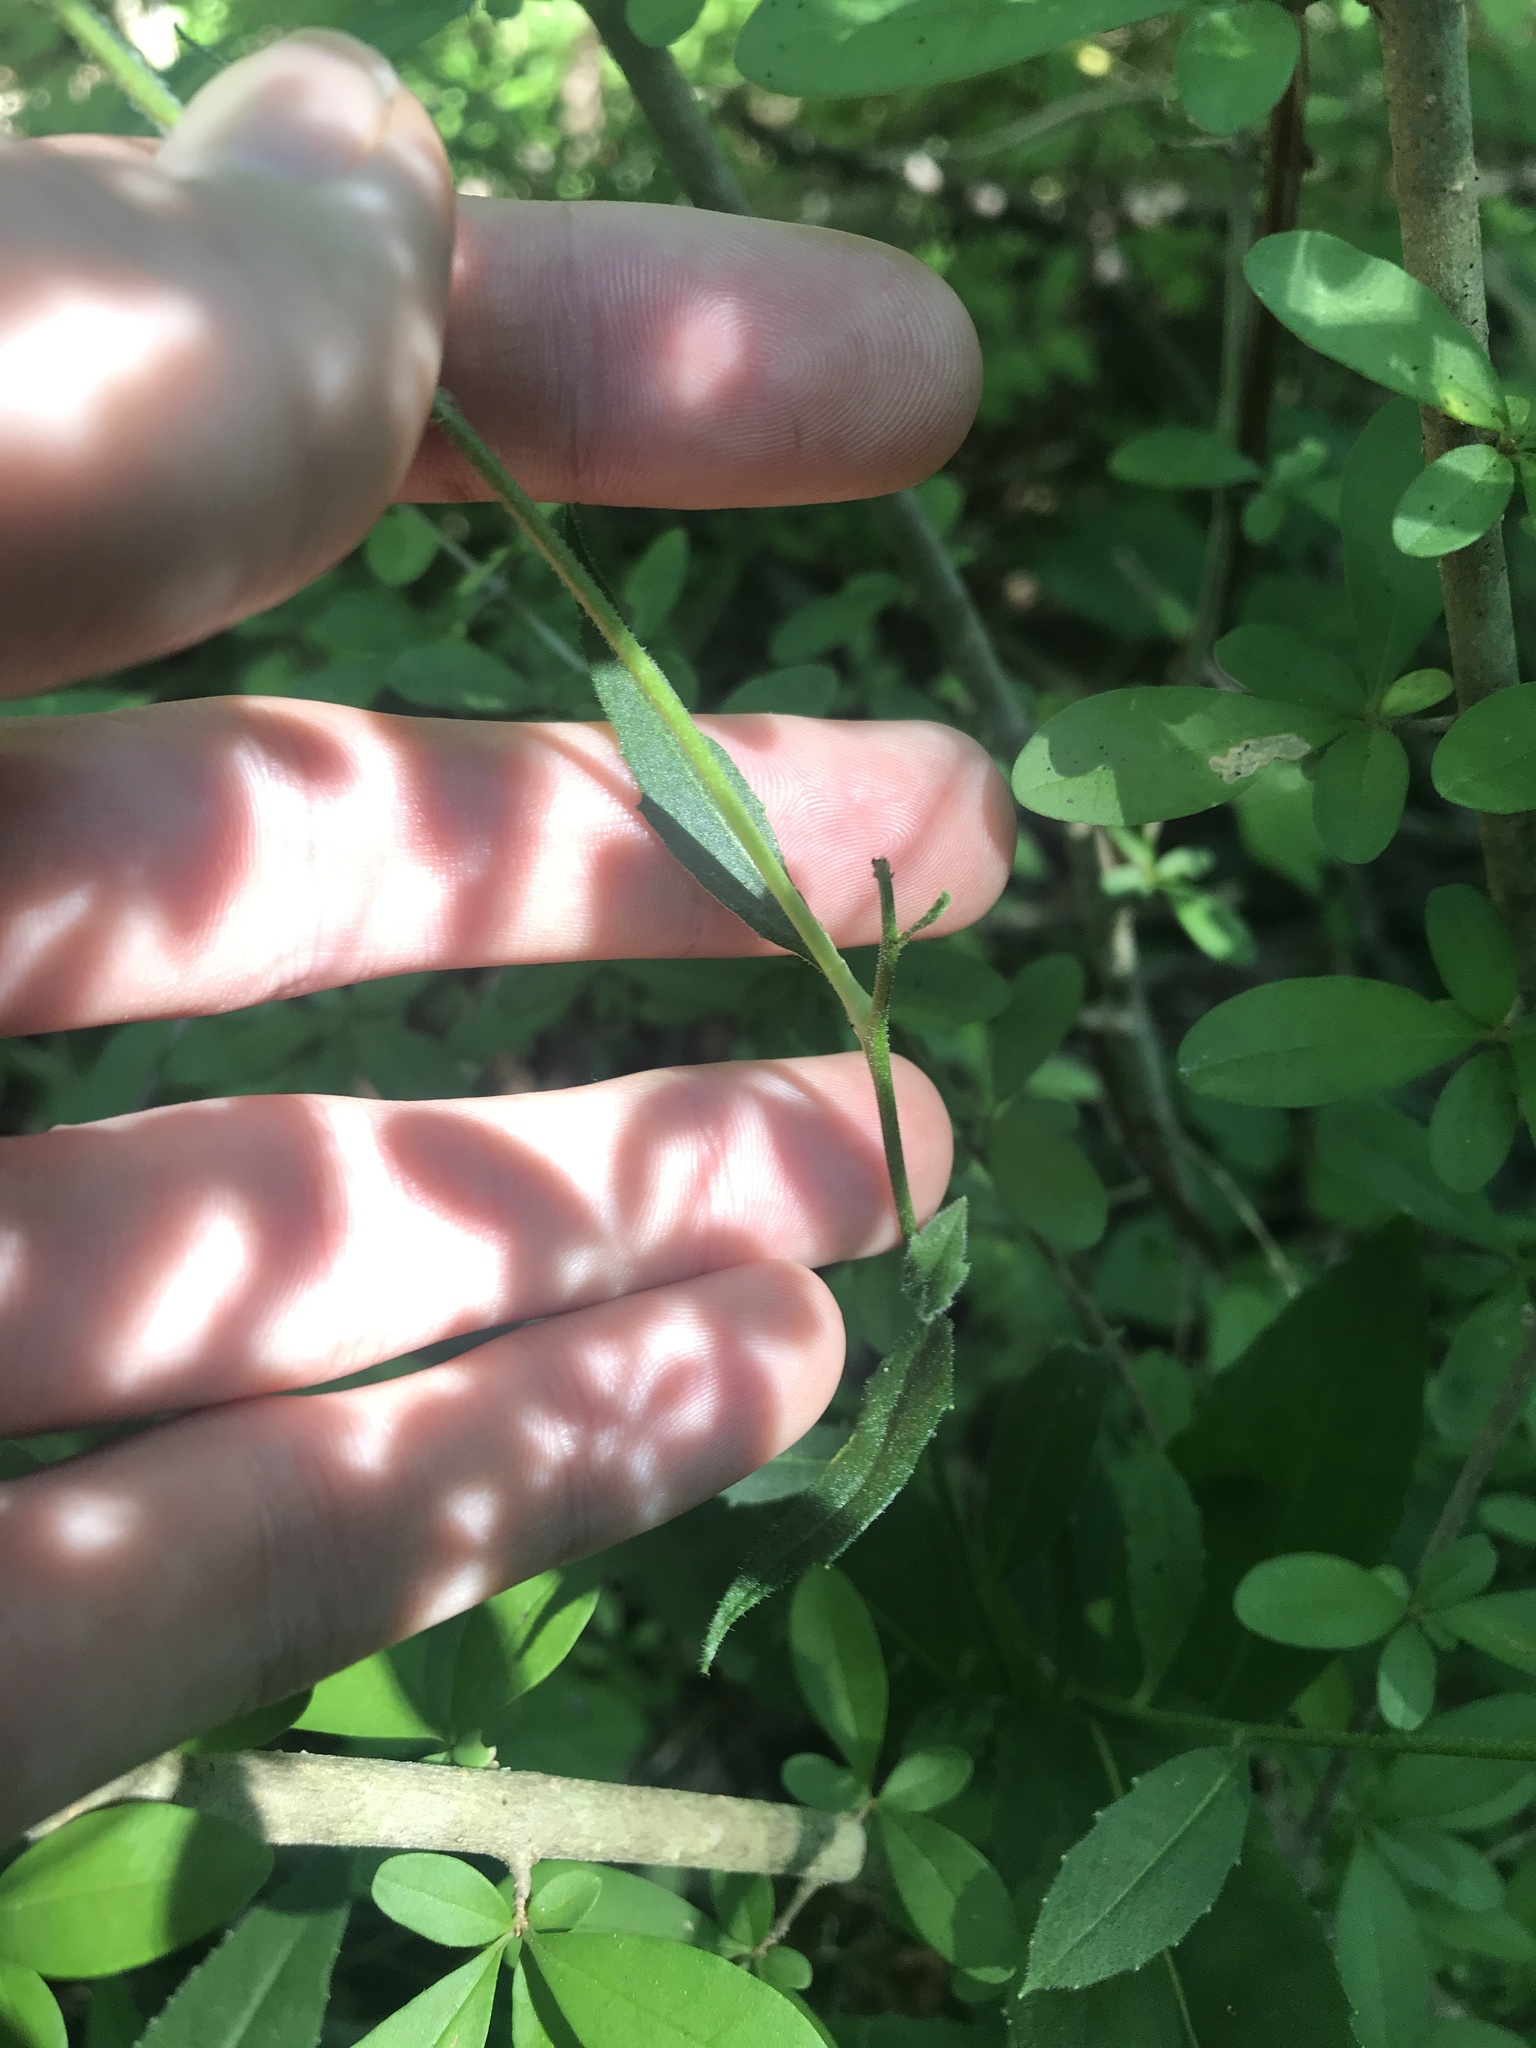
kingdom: Plantae
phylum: Tracheophyta
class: Magnoliopsida
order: Brassicales
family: Brassicaceae
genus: Hesperis
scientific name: Hesperis matronalis
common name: Dame's-violet
